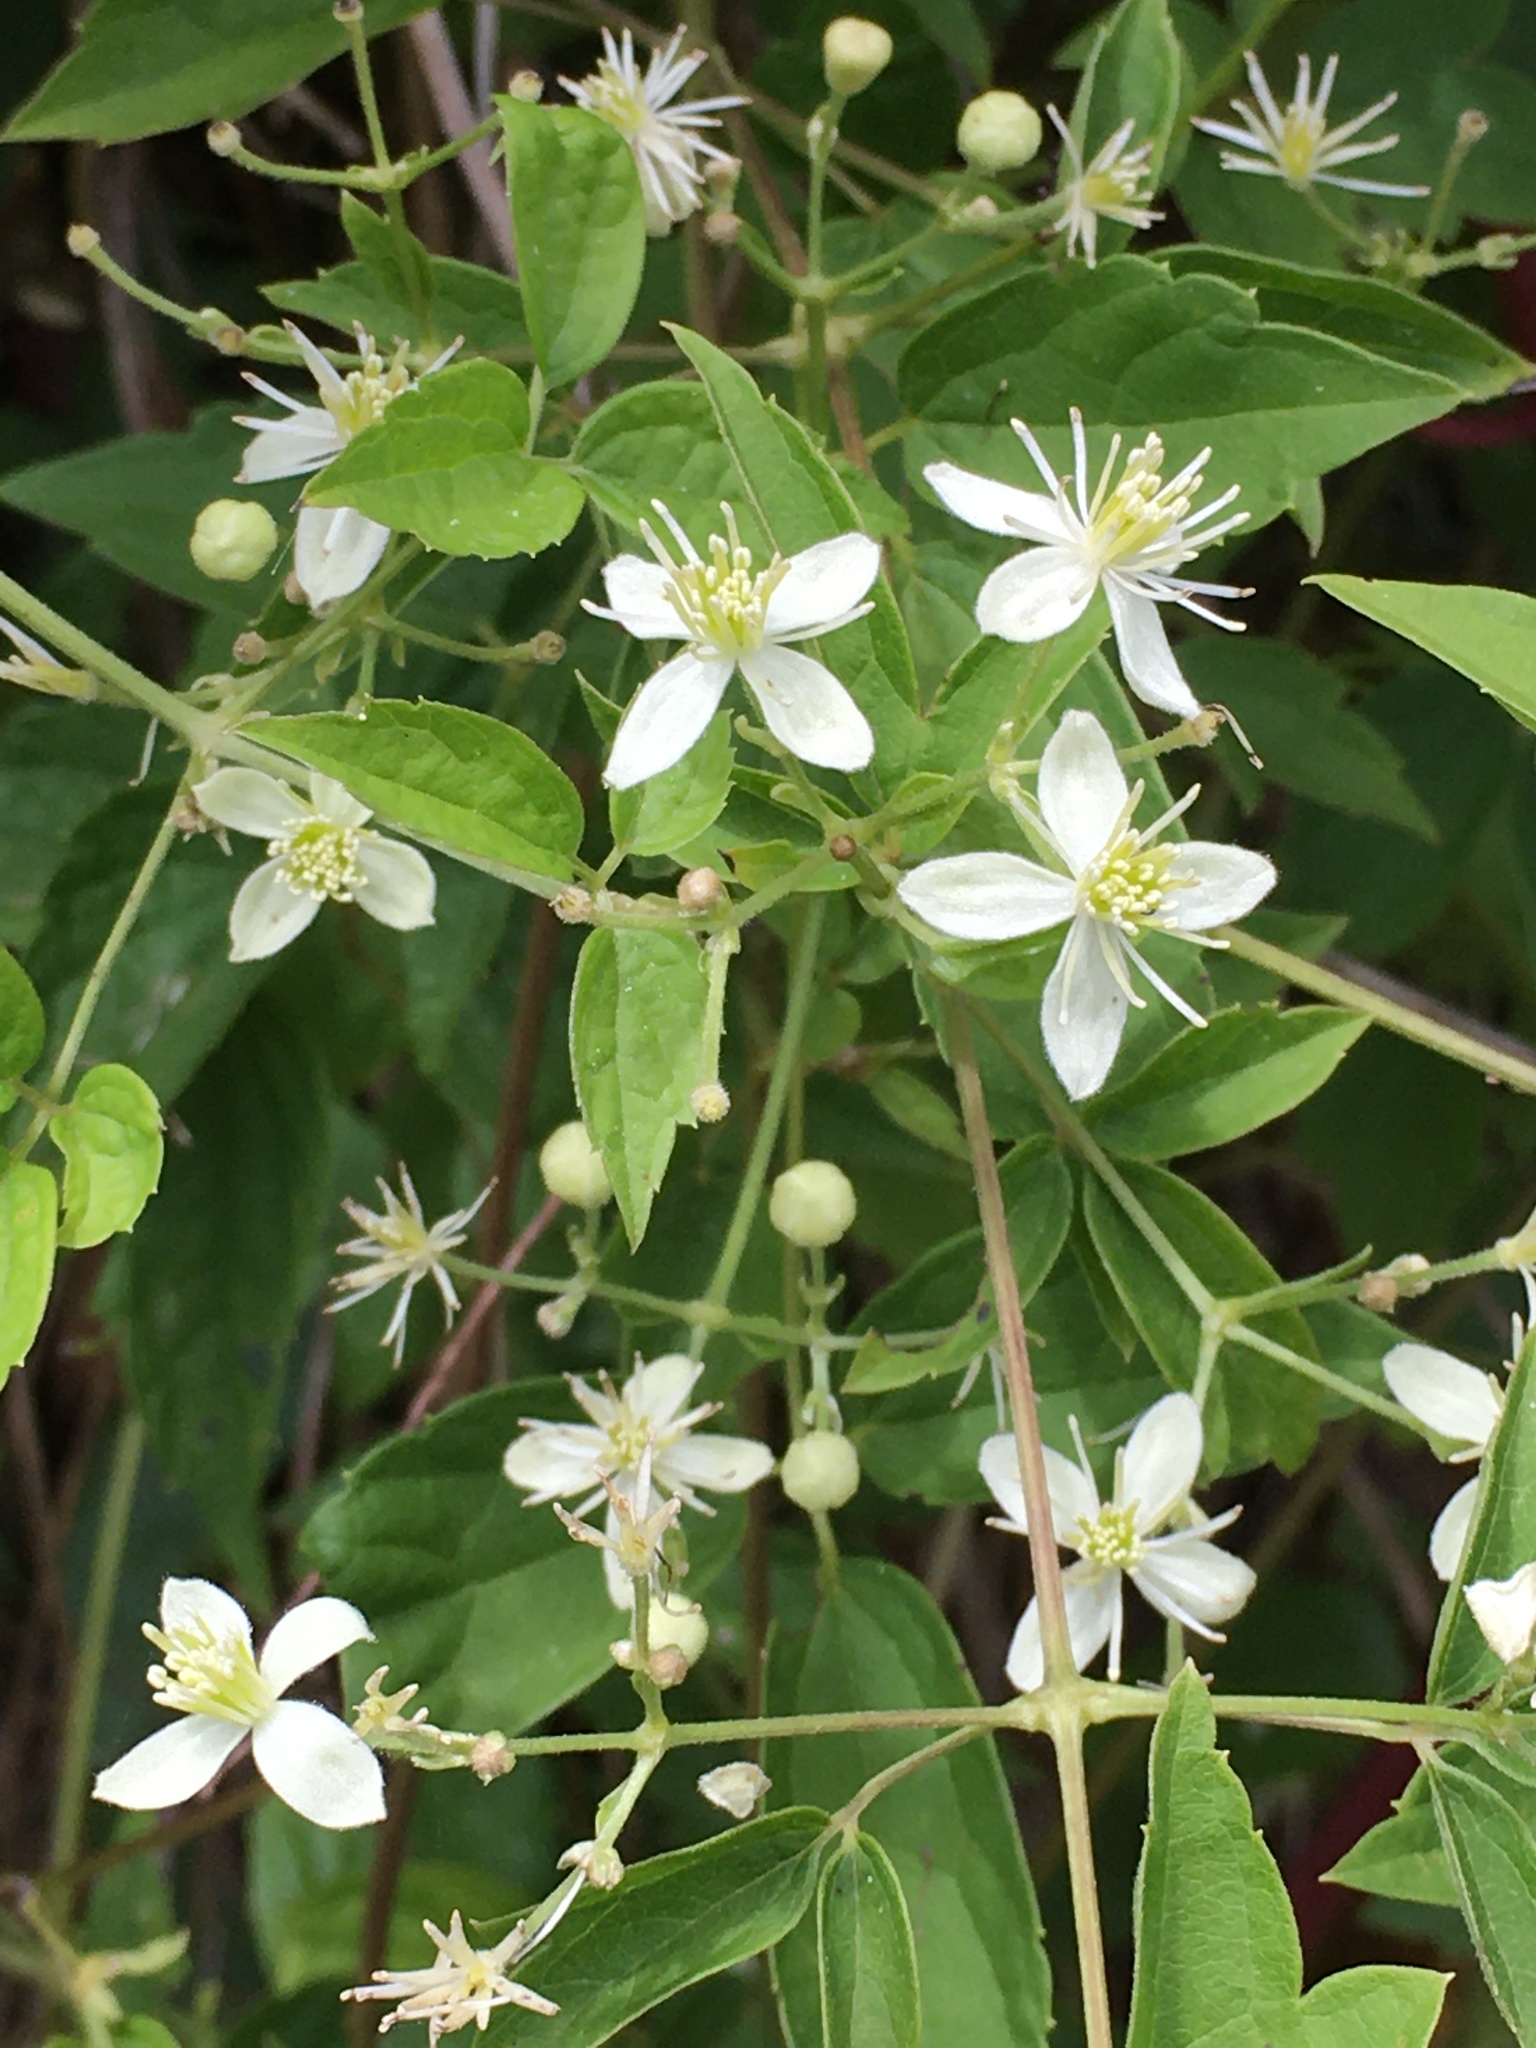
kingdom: Plantae
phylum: Tracheophyta
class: Magnoliopsida
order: Ranunculales
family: Ranunculaceae
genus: Clematis
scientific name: Clematis virginiana
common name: Virgin's-bower
